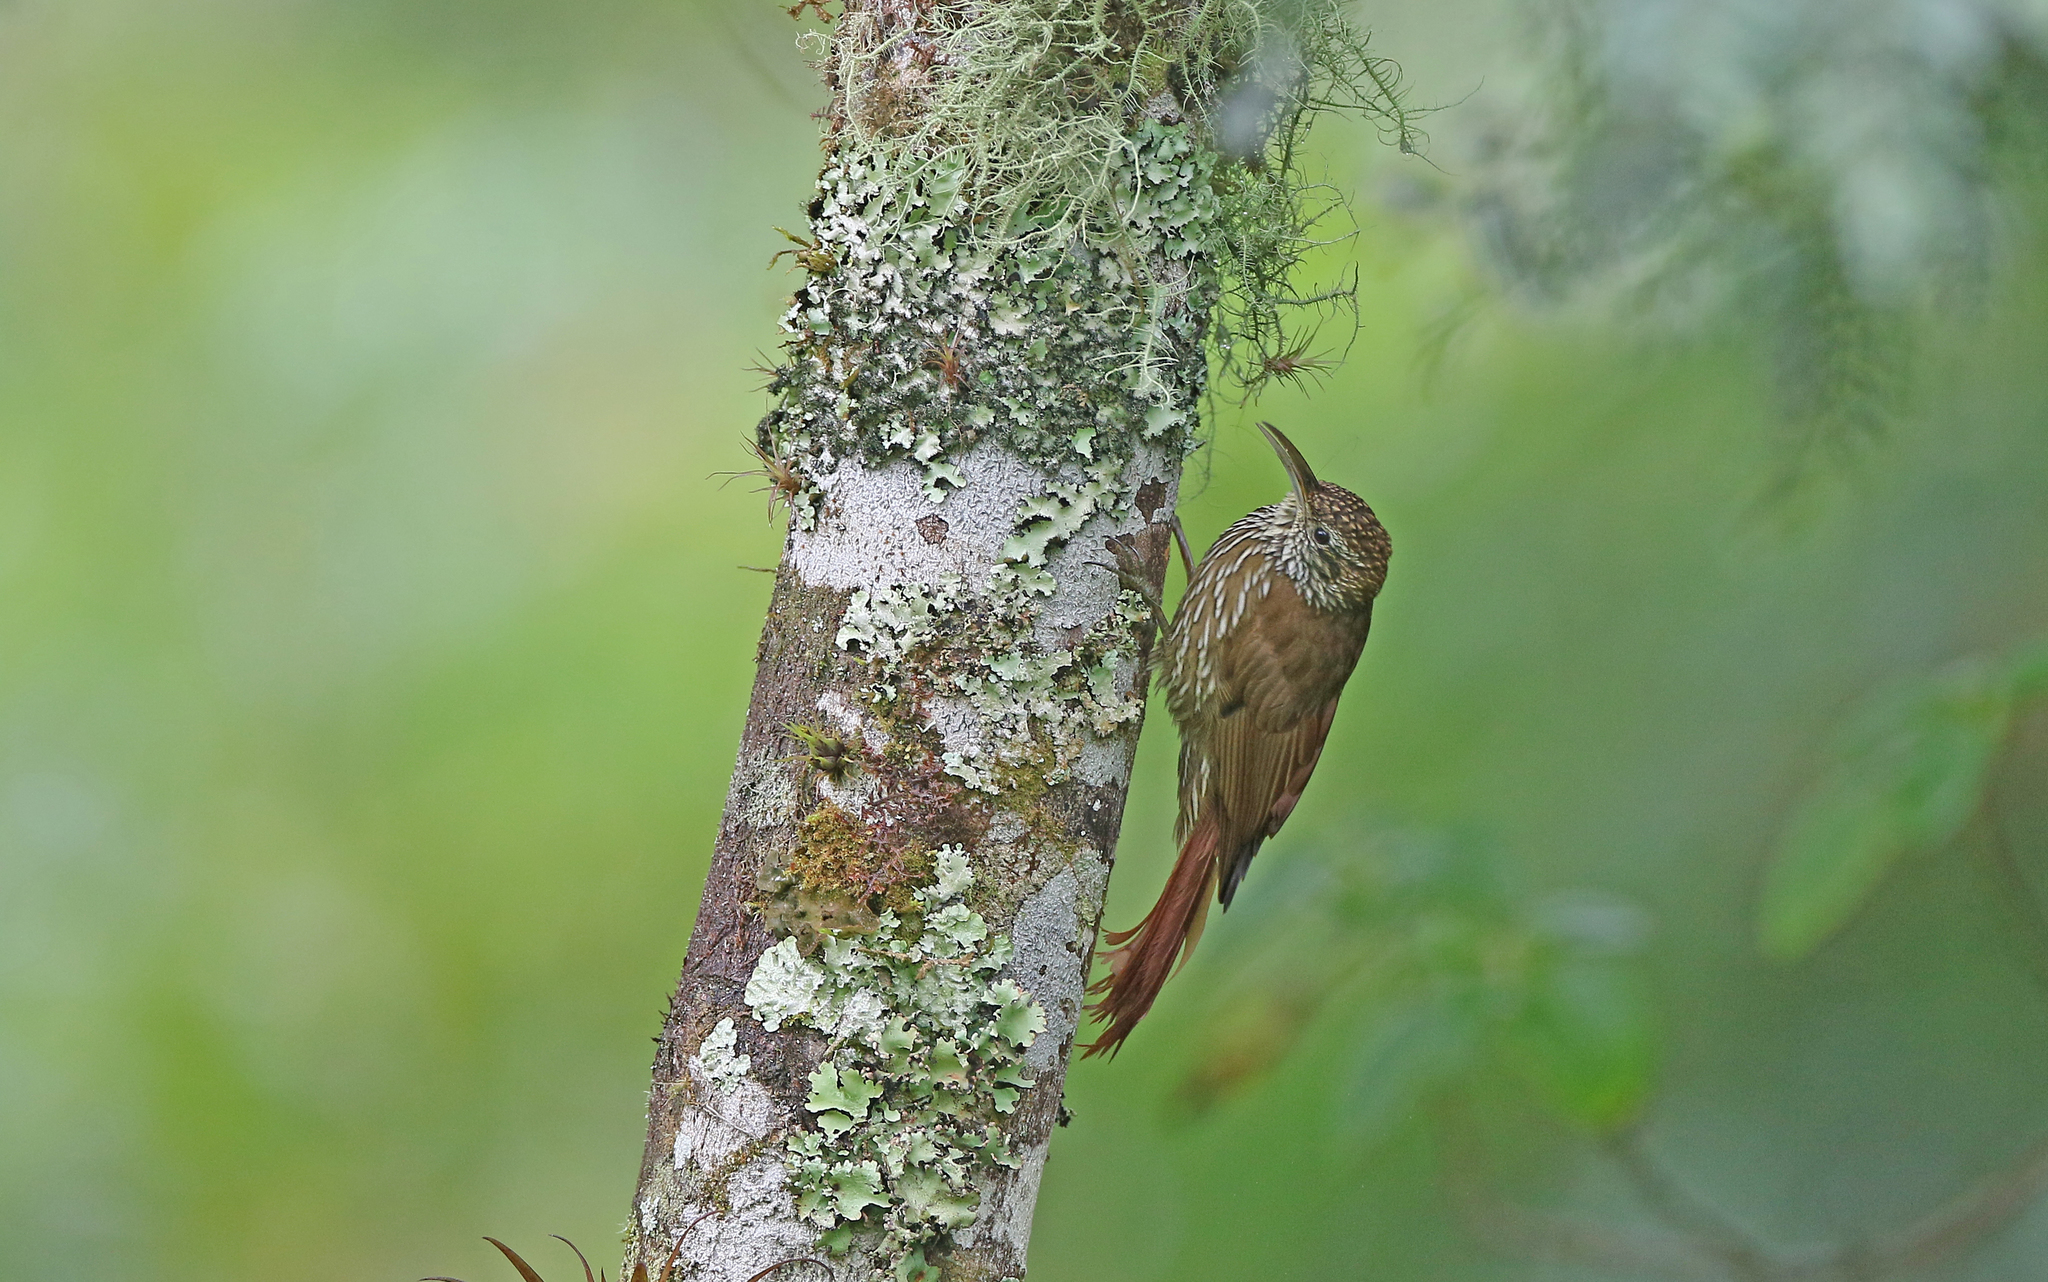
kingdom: Animalia
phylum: Chordata
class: Aves
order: Passeriformes
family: Furnariidae
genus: Lepidocolaptes
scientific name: Lepidocolaptes lacrymiger
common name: Montane woodcreeper
